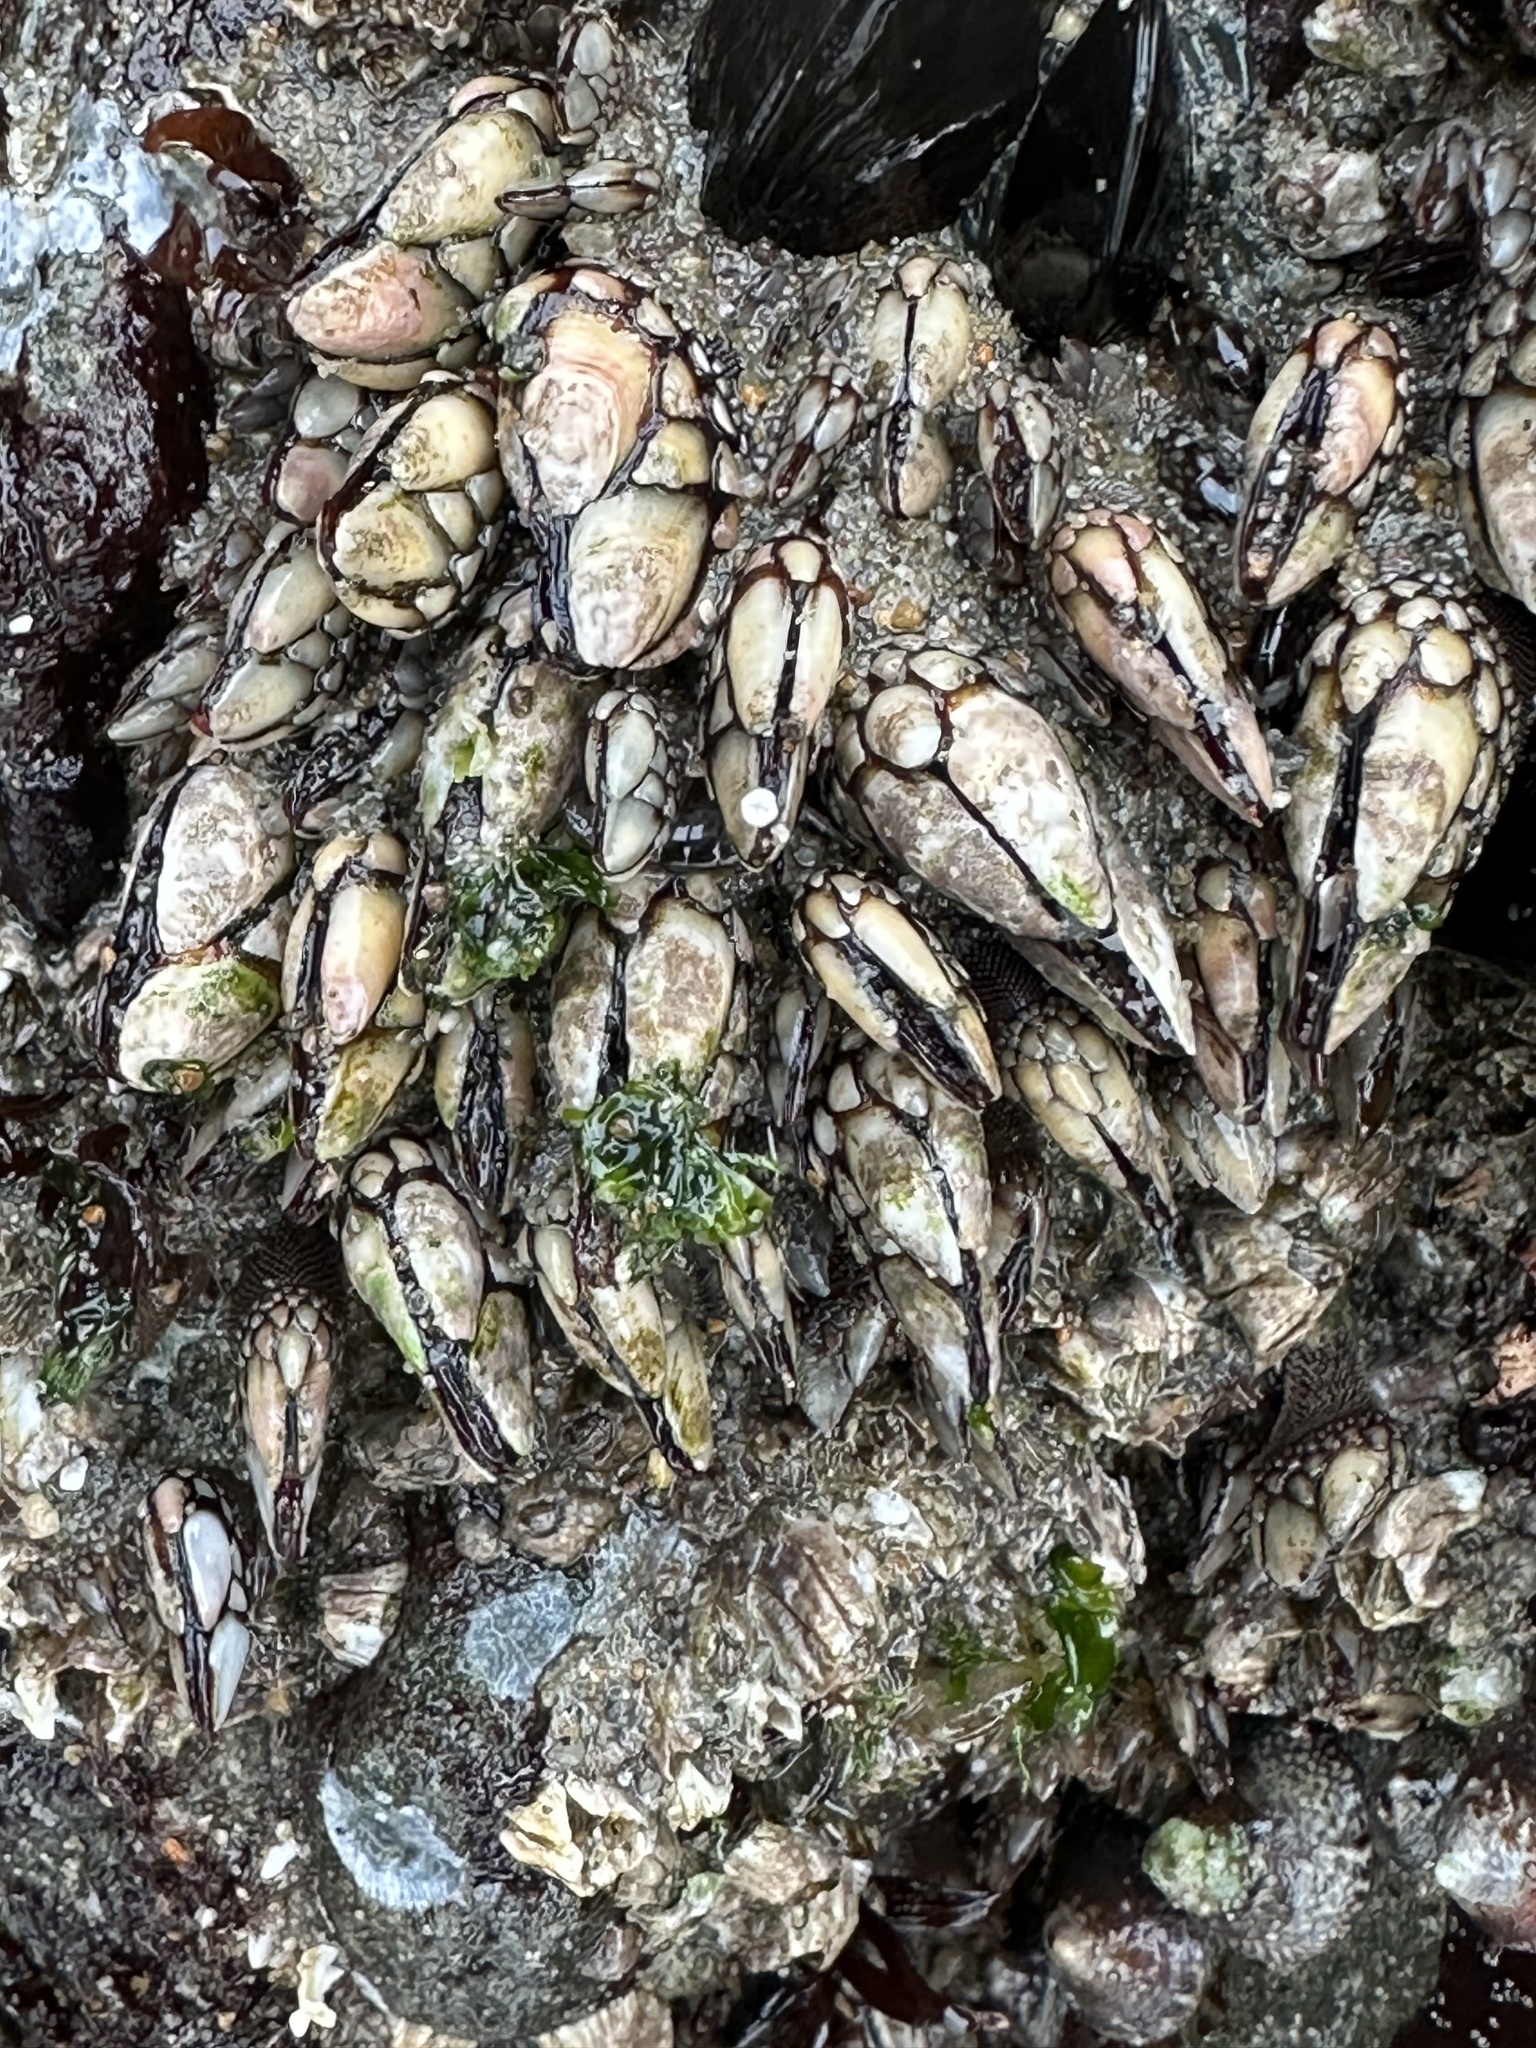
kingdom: Animalia
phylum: Arthropoda
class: Maxillopoda
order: Pedunculata
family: Pollicipedidae
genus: Pollicipes
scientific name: Pollicipes polymerus
